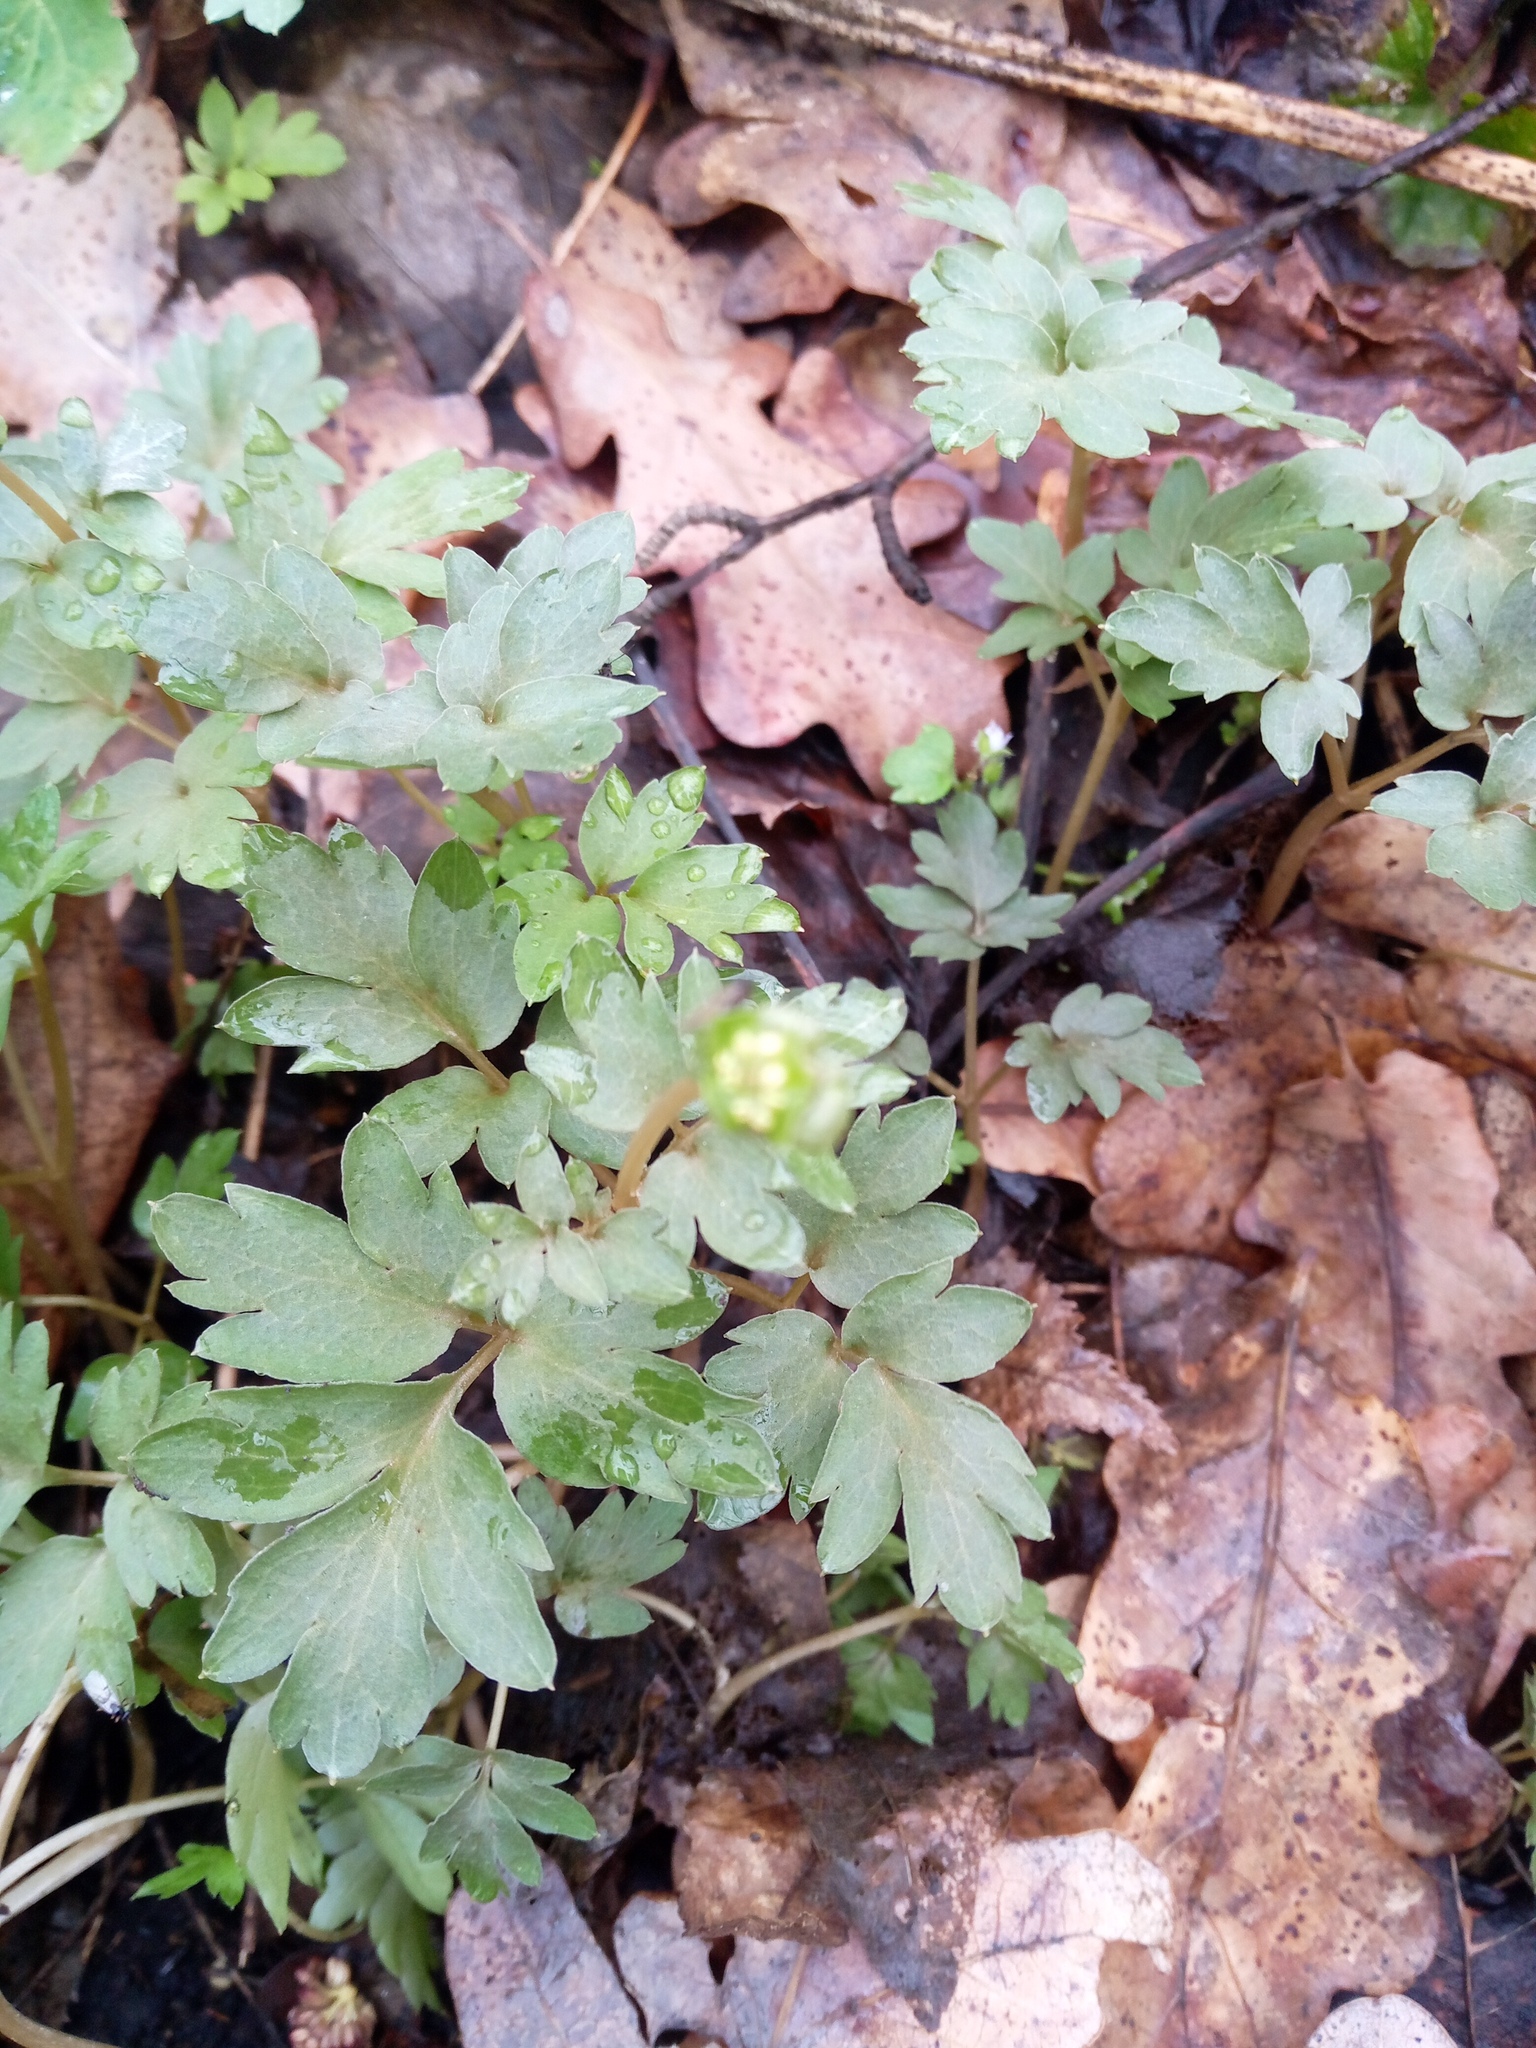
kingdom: Plantae
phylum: Tracheophyta
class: Magnoliopsida
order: Dipsacales
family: Viburnaceae
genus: Adoxa
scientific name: Adoxa moschatellina
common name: Moschatel
